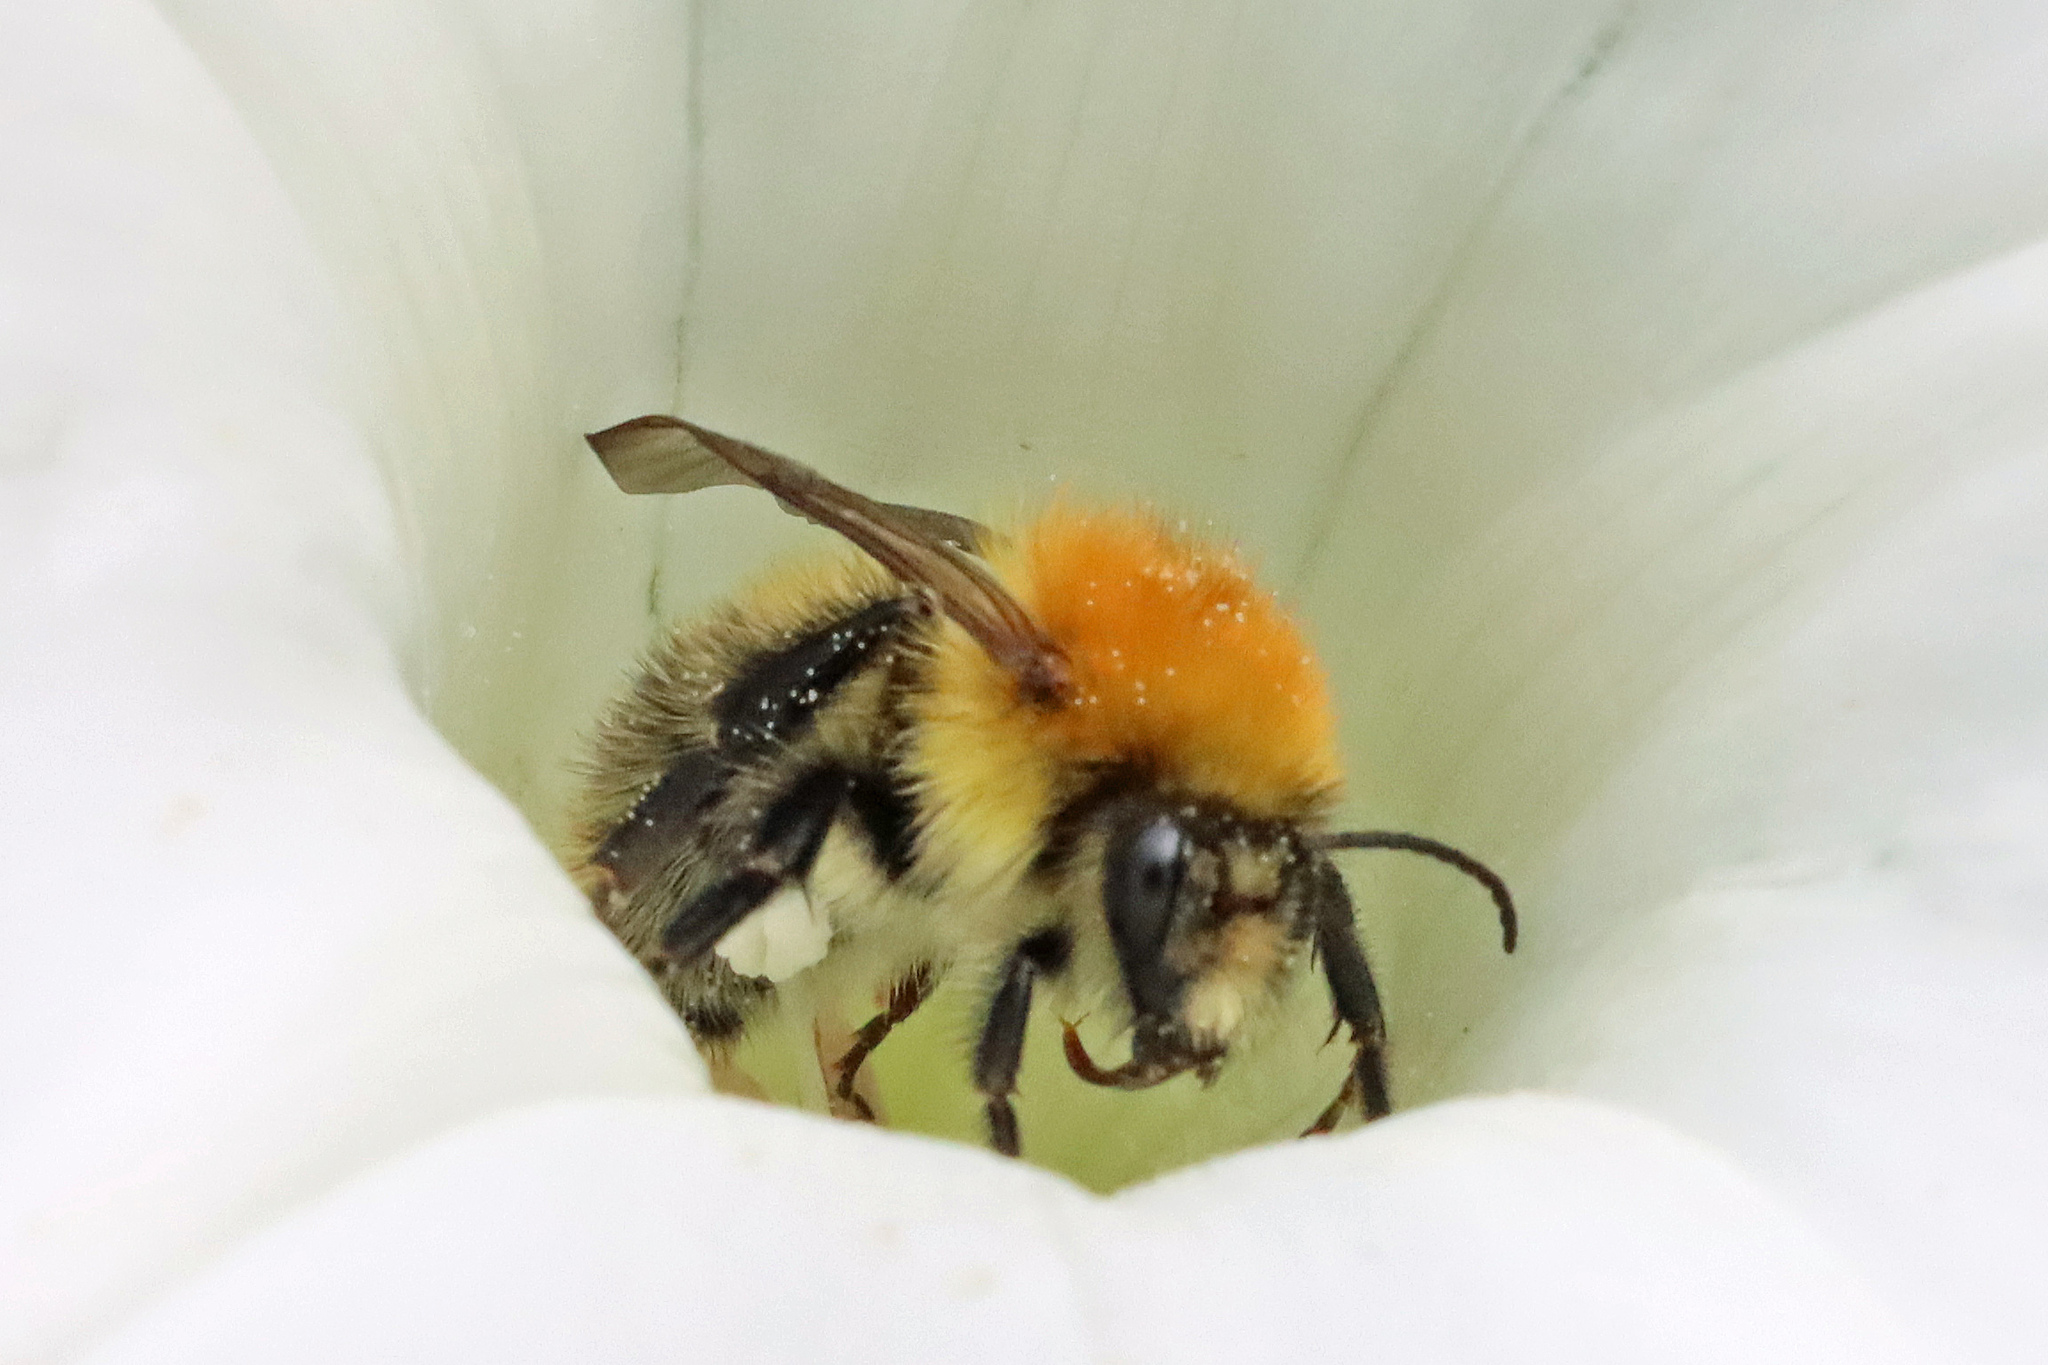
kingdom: Animalia
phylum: Arthropoda
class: Insecta
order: Hymenoptera
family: Apidae
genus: Bombus
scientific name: Bombus pascuorum
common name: Common carder bee
